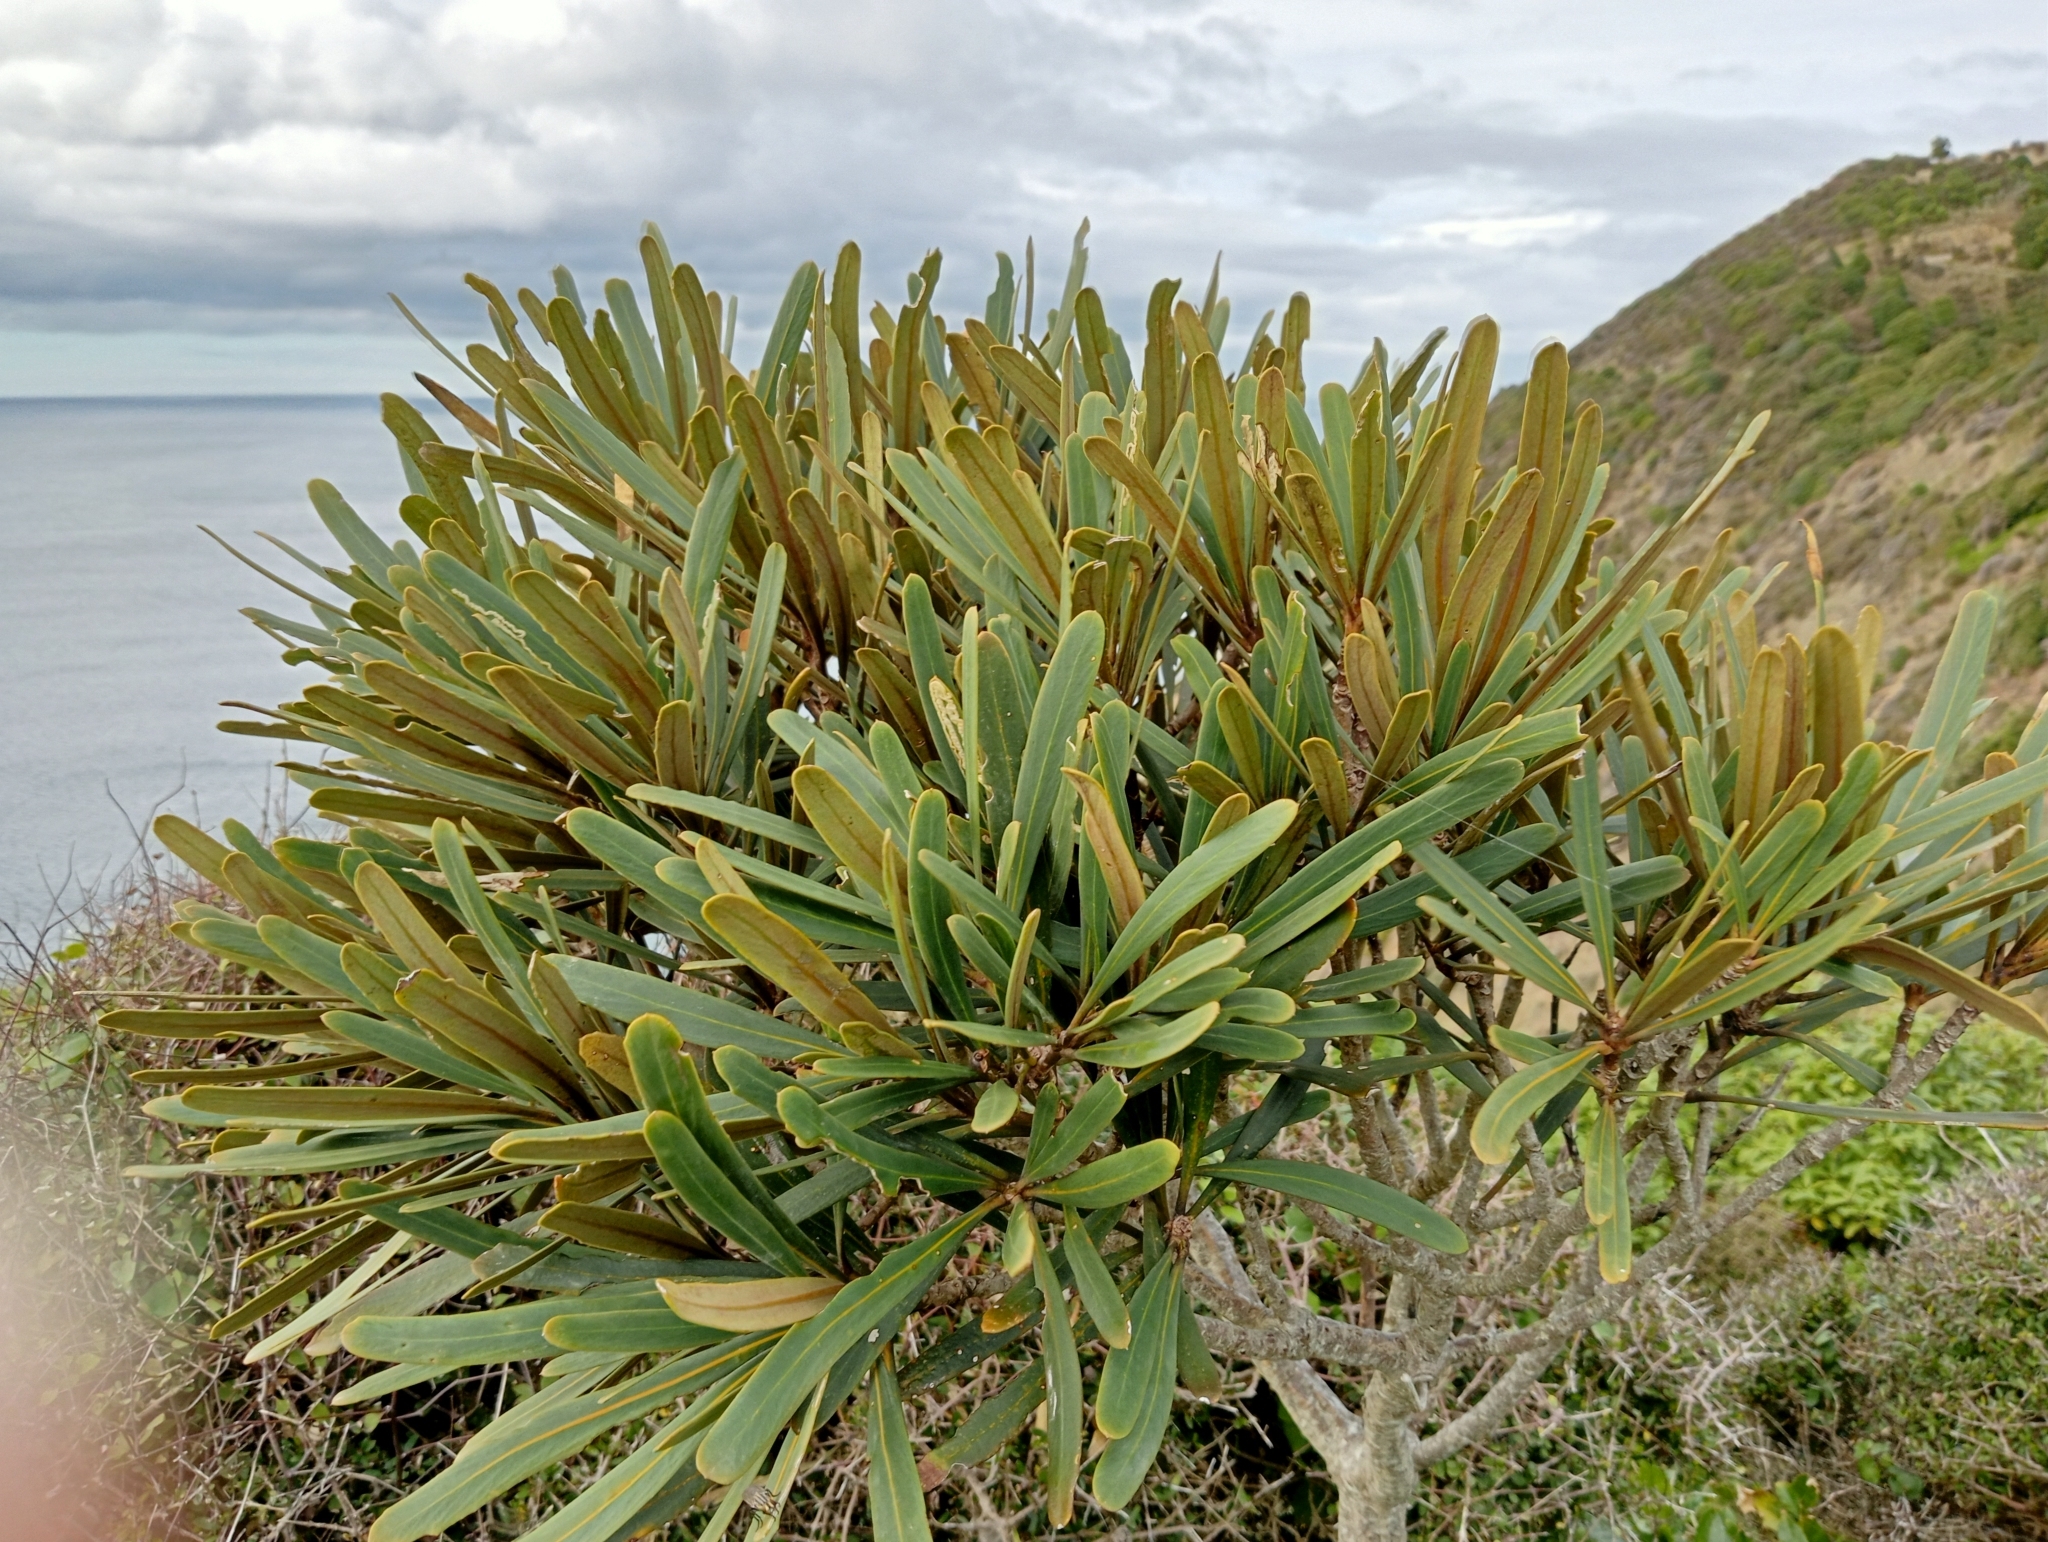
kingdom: Plantae
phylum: Tracheophyta
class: Magnoliopsida
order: Apiales
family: Araliaceae
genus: Pseudopanax
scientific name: Pseudopanax ferox
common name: Fierce lancewood
